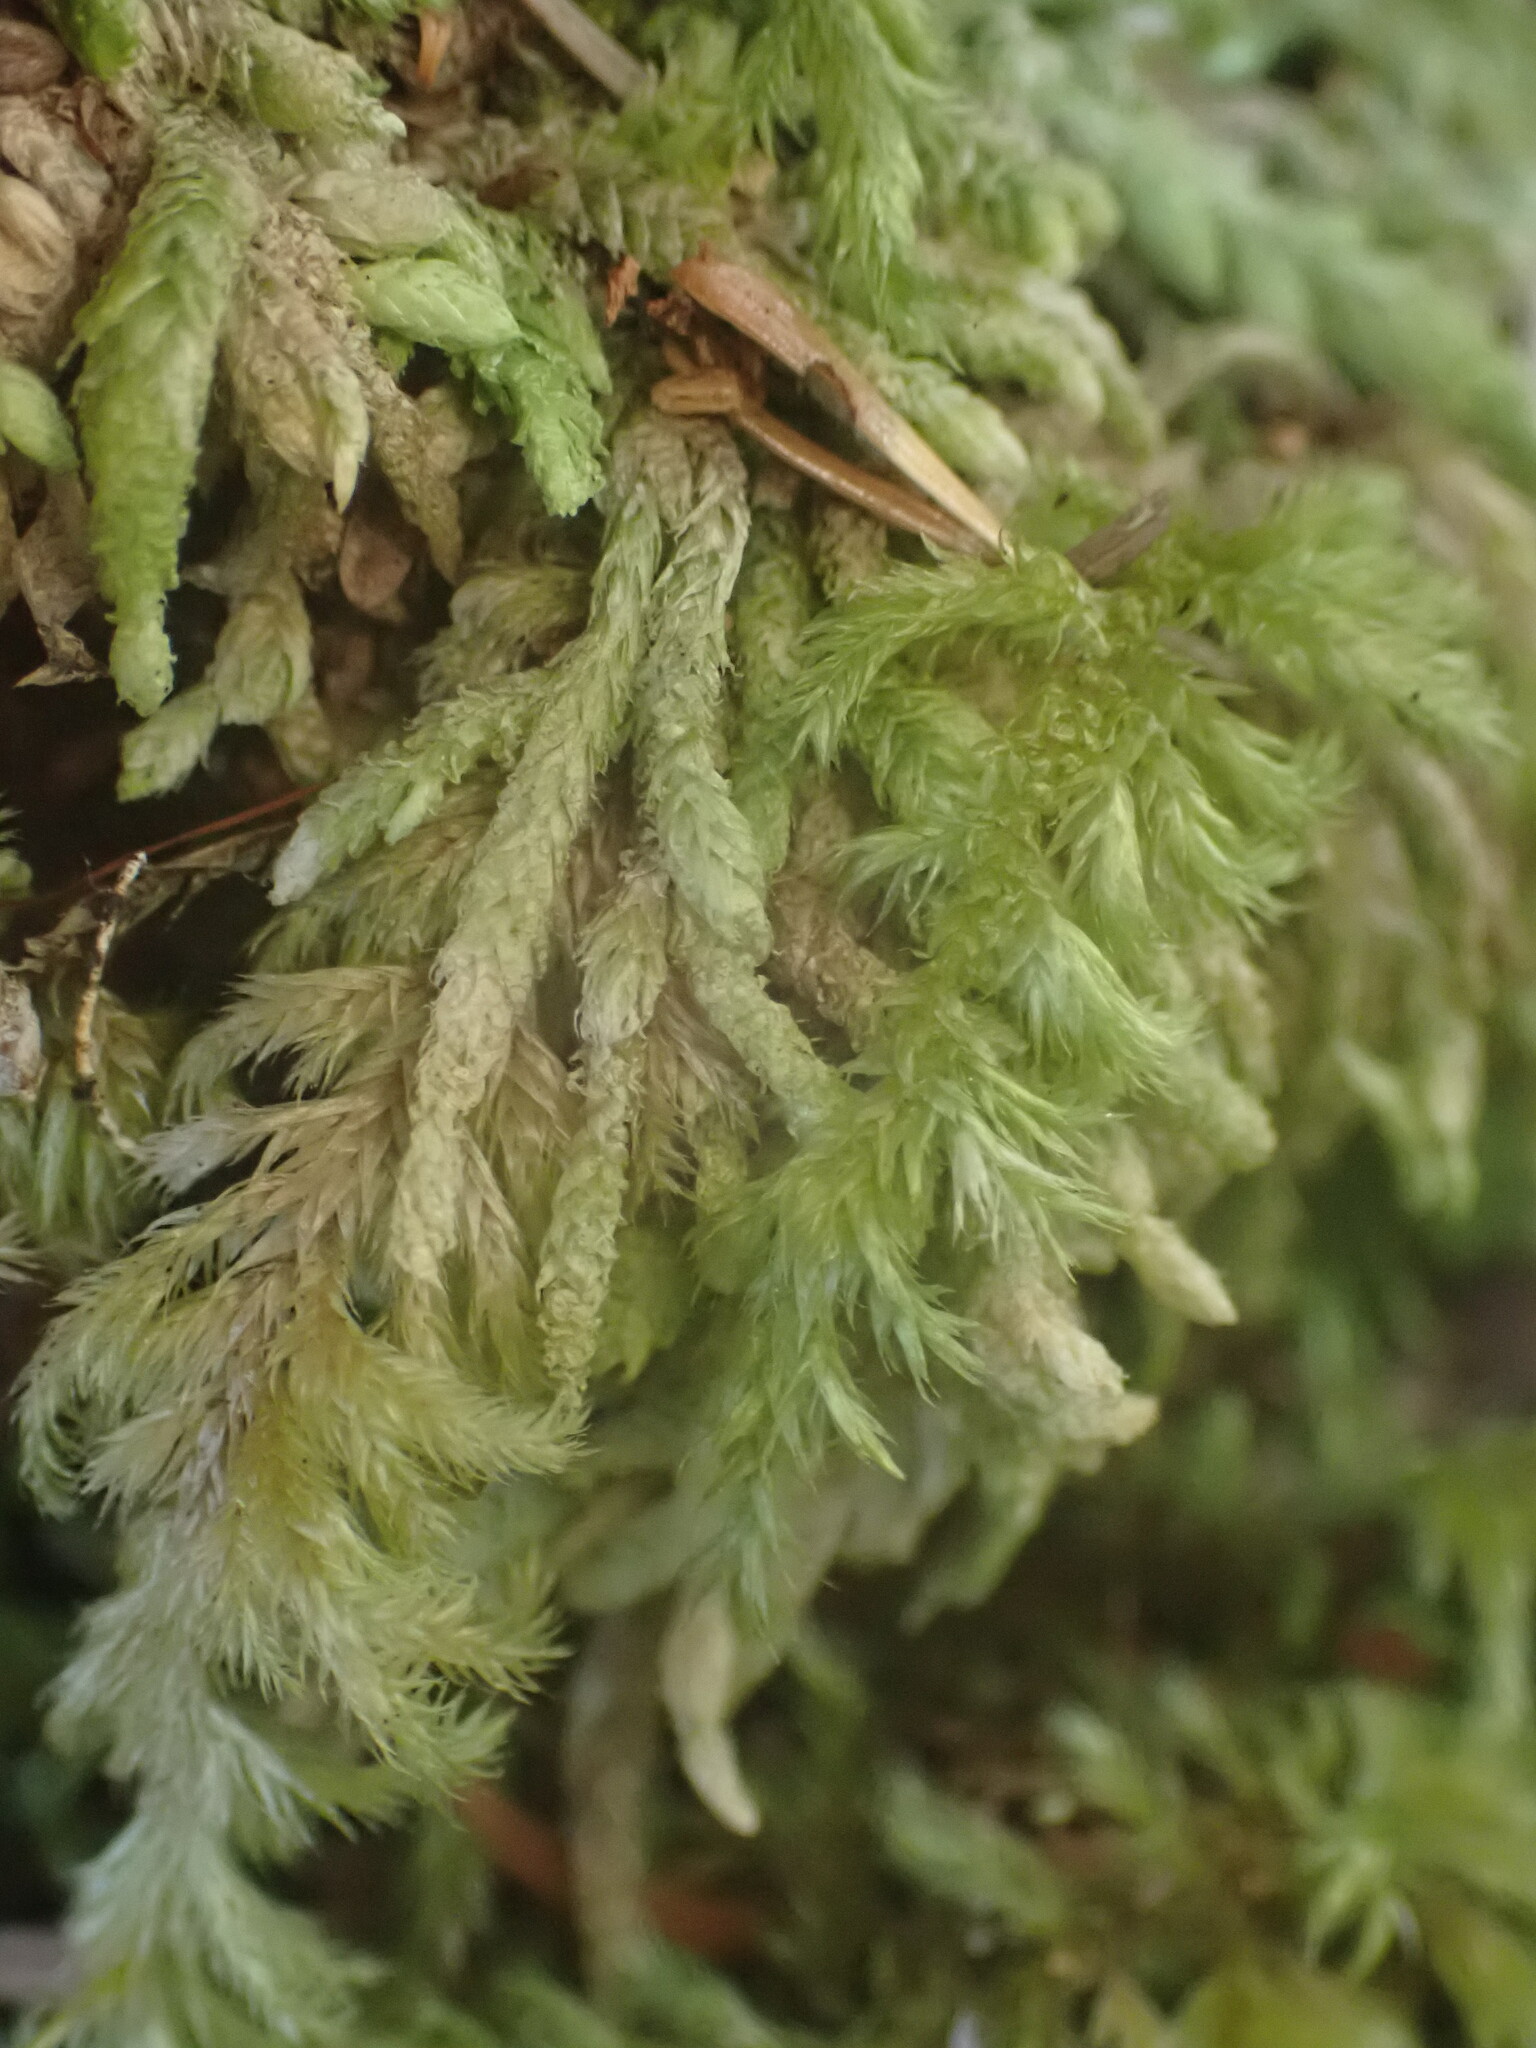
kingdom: Plantae
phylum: Bryophyta
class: Bryopsida
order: Hypnales
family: Plagiotheciaceae
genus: Plagiothecium
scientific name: Plagiothecium undulatum
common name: Waved silk-moss
